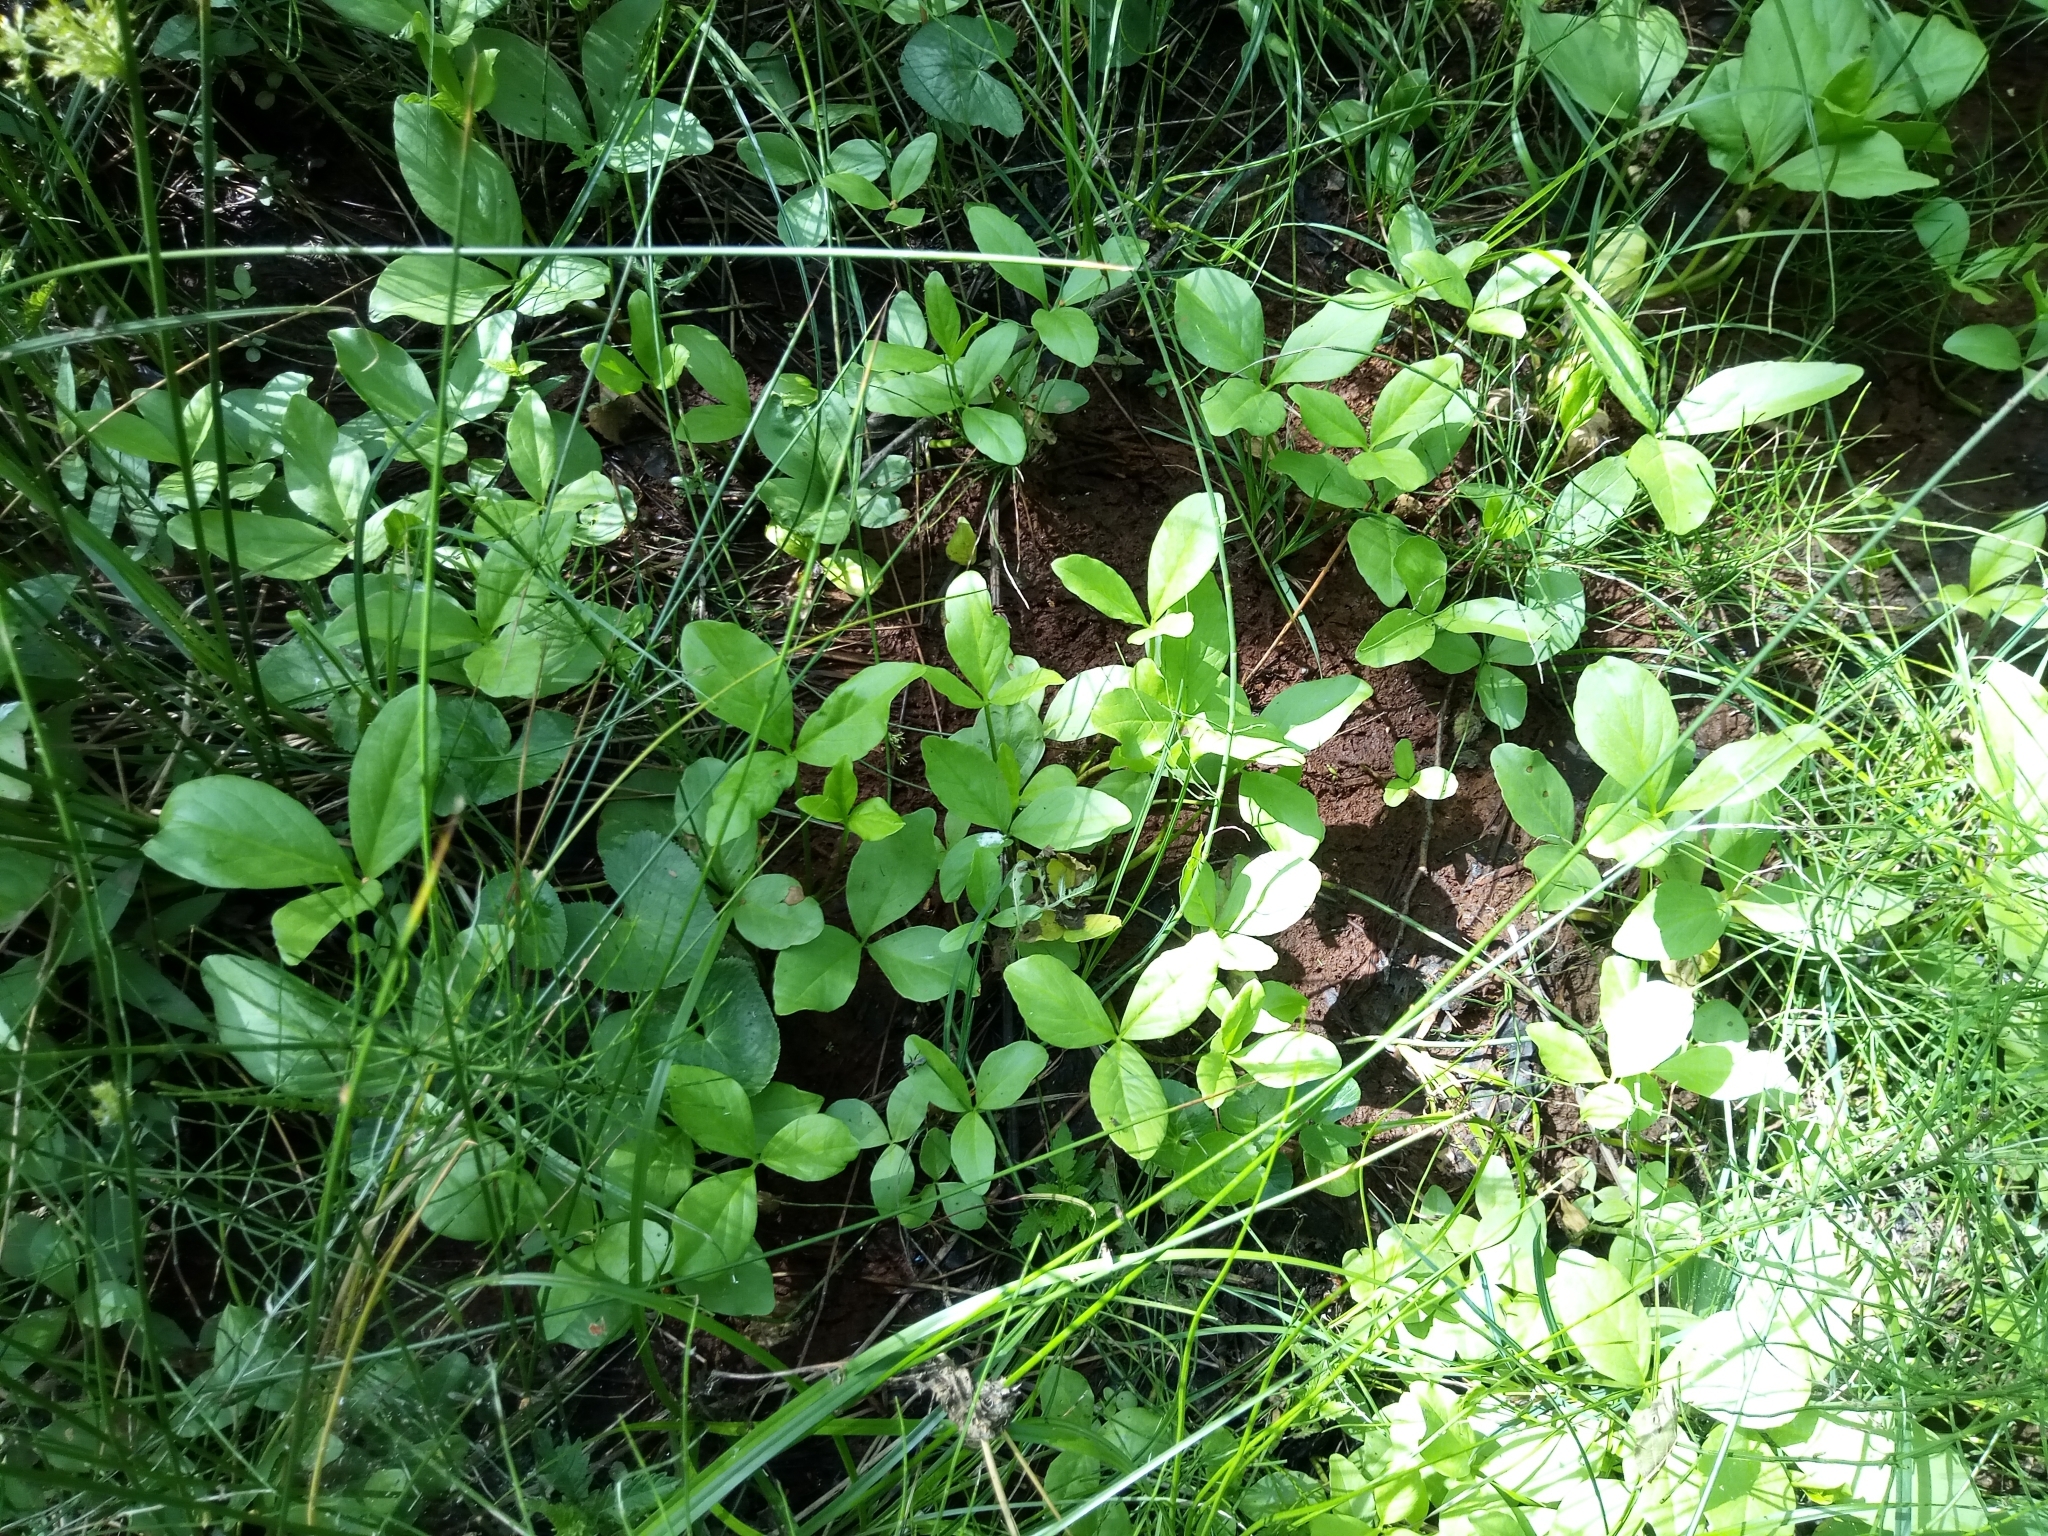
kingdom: Plantae
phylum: Tracheophyta
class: Magnoliopsida
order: Asterales
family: Menyanthaceae
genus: Menyanthes
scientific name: Menyanthes trifoliata
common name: Bogbean
